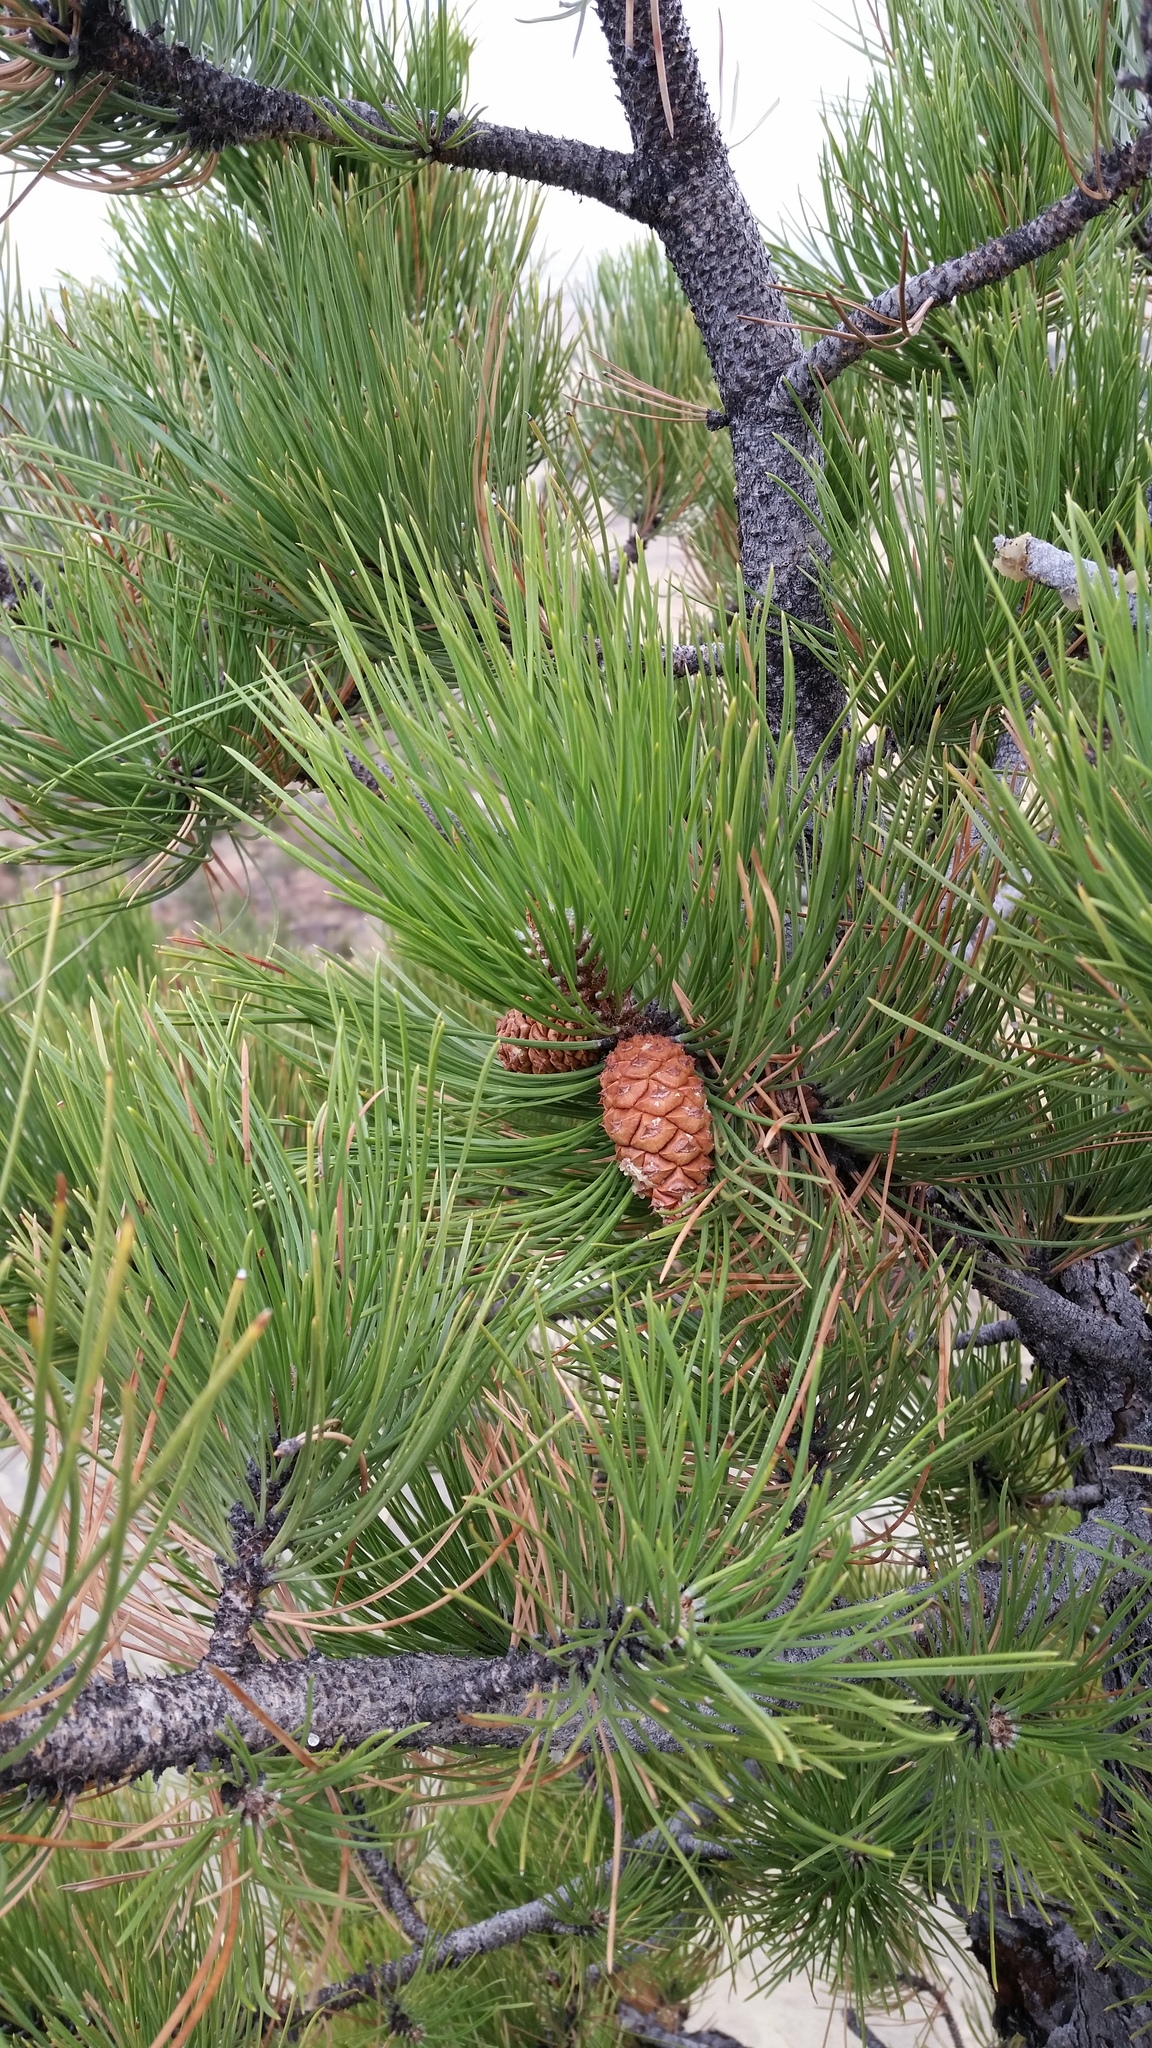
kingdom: Plantae
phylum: Tracheophyta
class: Pinopsida
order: Pinales
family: Pinaceae
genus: Pinus
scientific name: Pinus ponderosa
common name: Western yellow-pine
